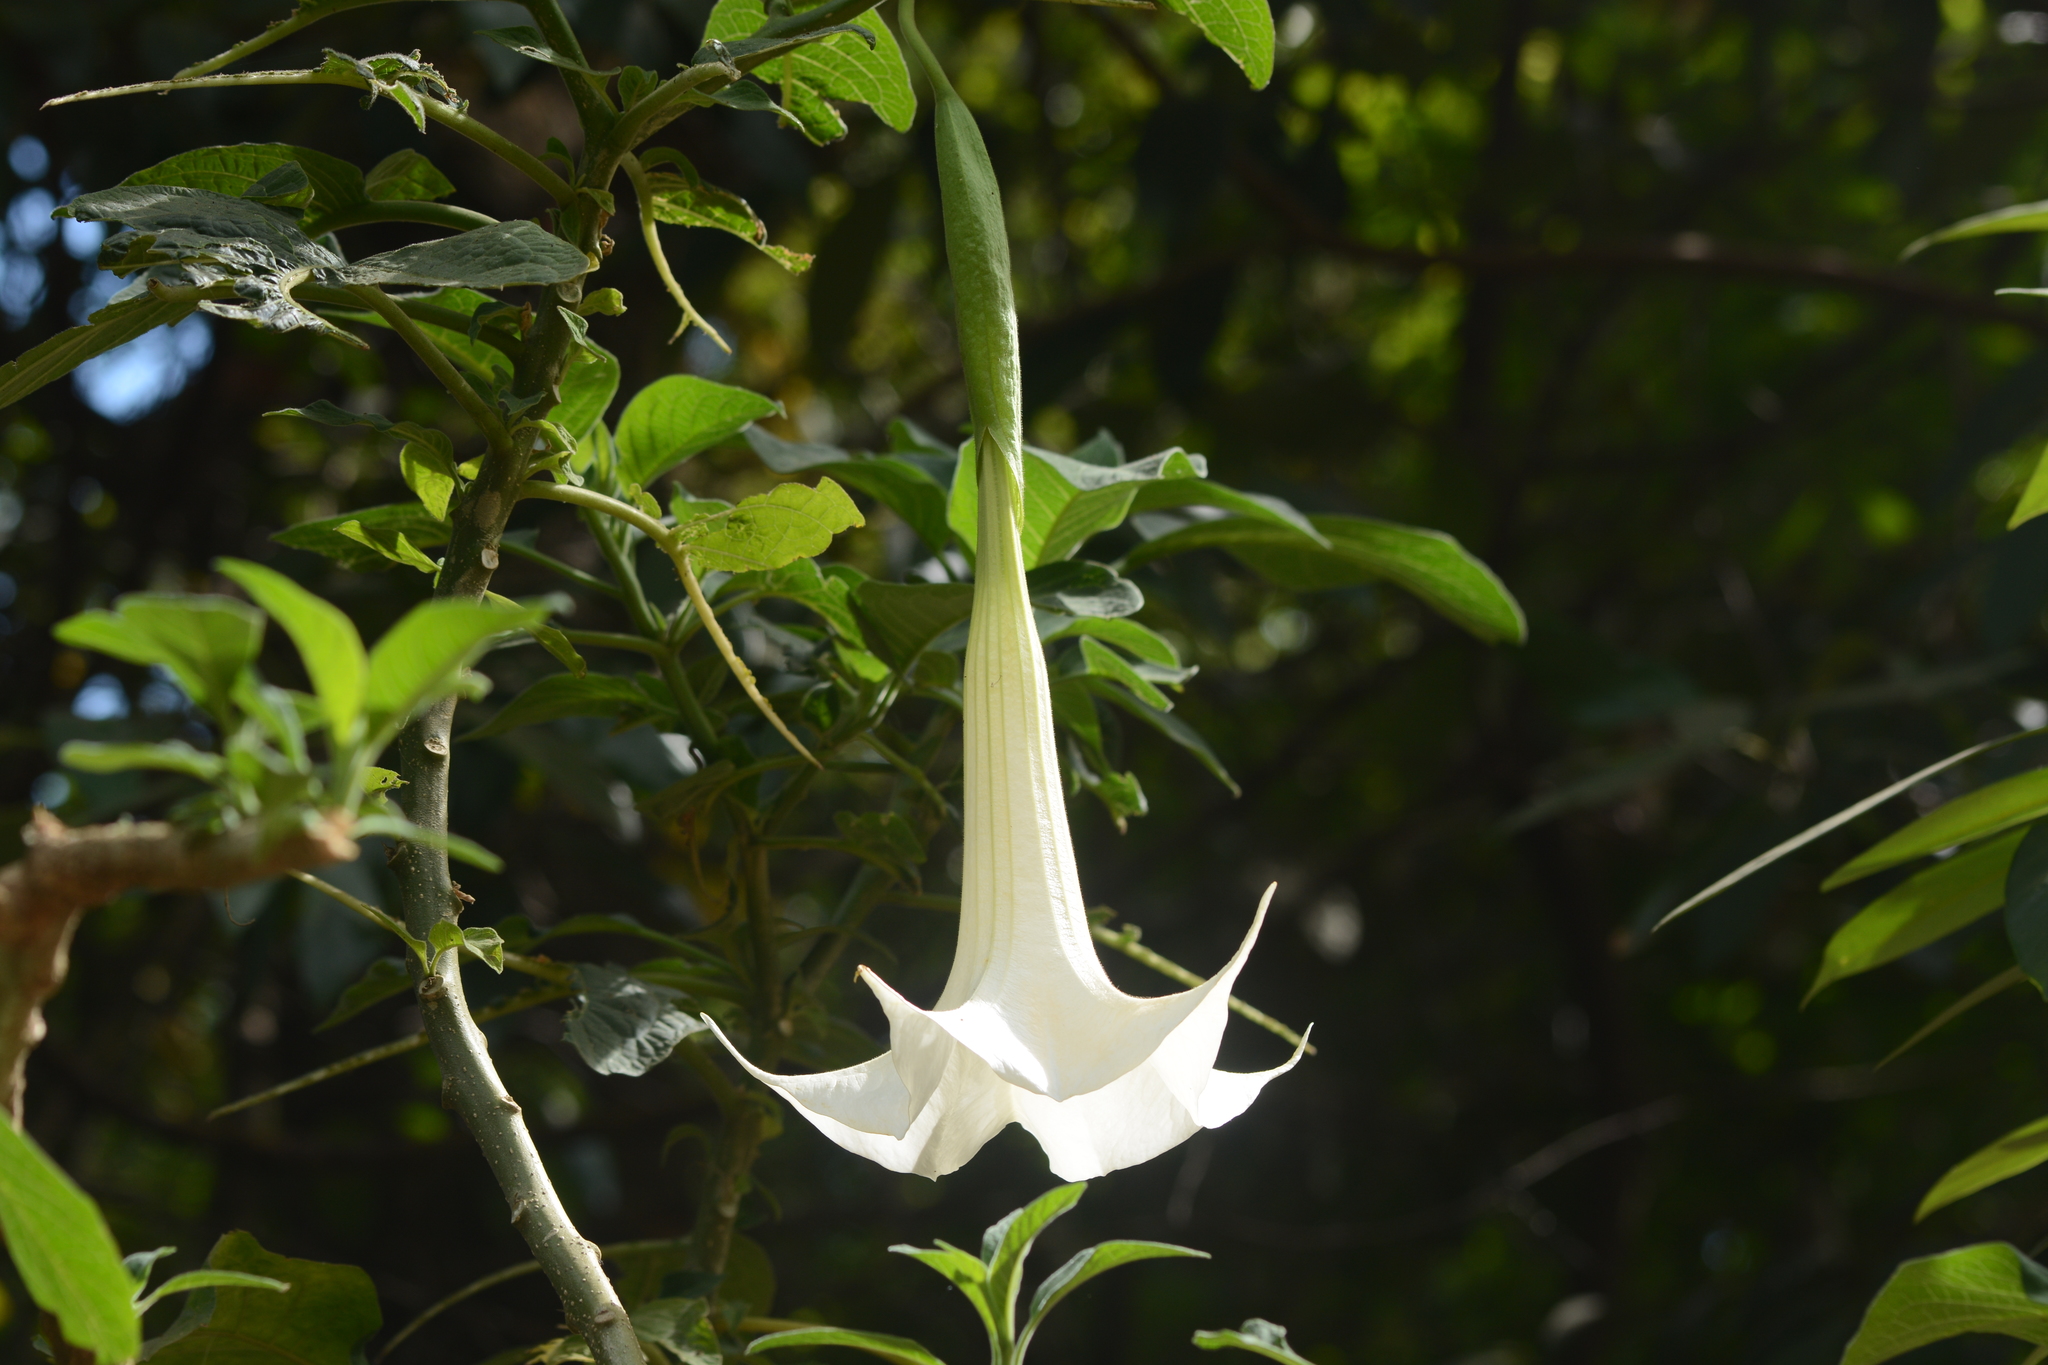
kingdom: Plantae
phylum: Tracheophyta
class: Magnoliopsida
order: Solanales
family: Solanaceae
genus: Brugmansia
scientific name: Brugmansia arborea
